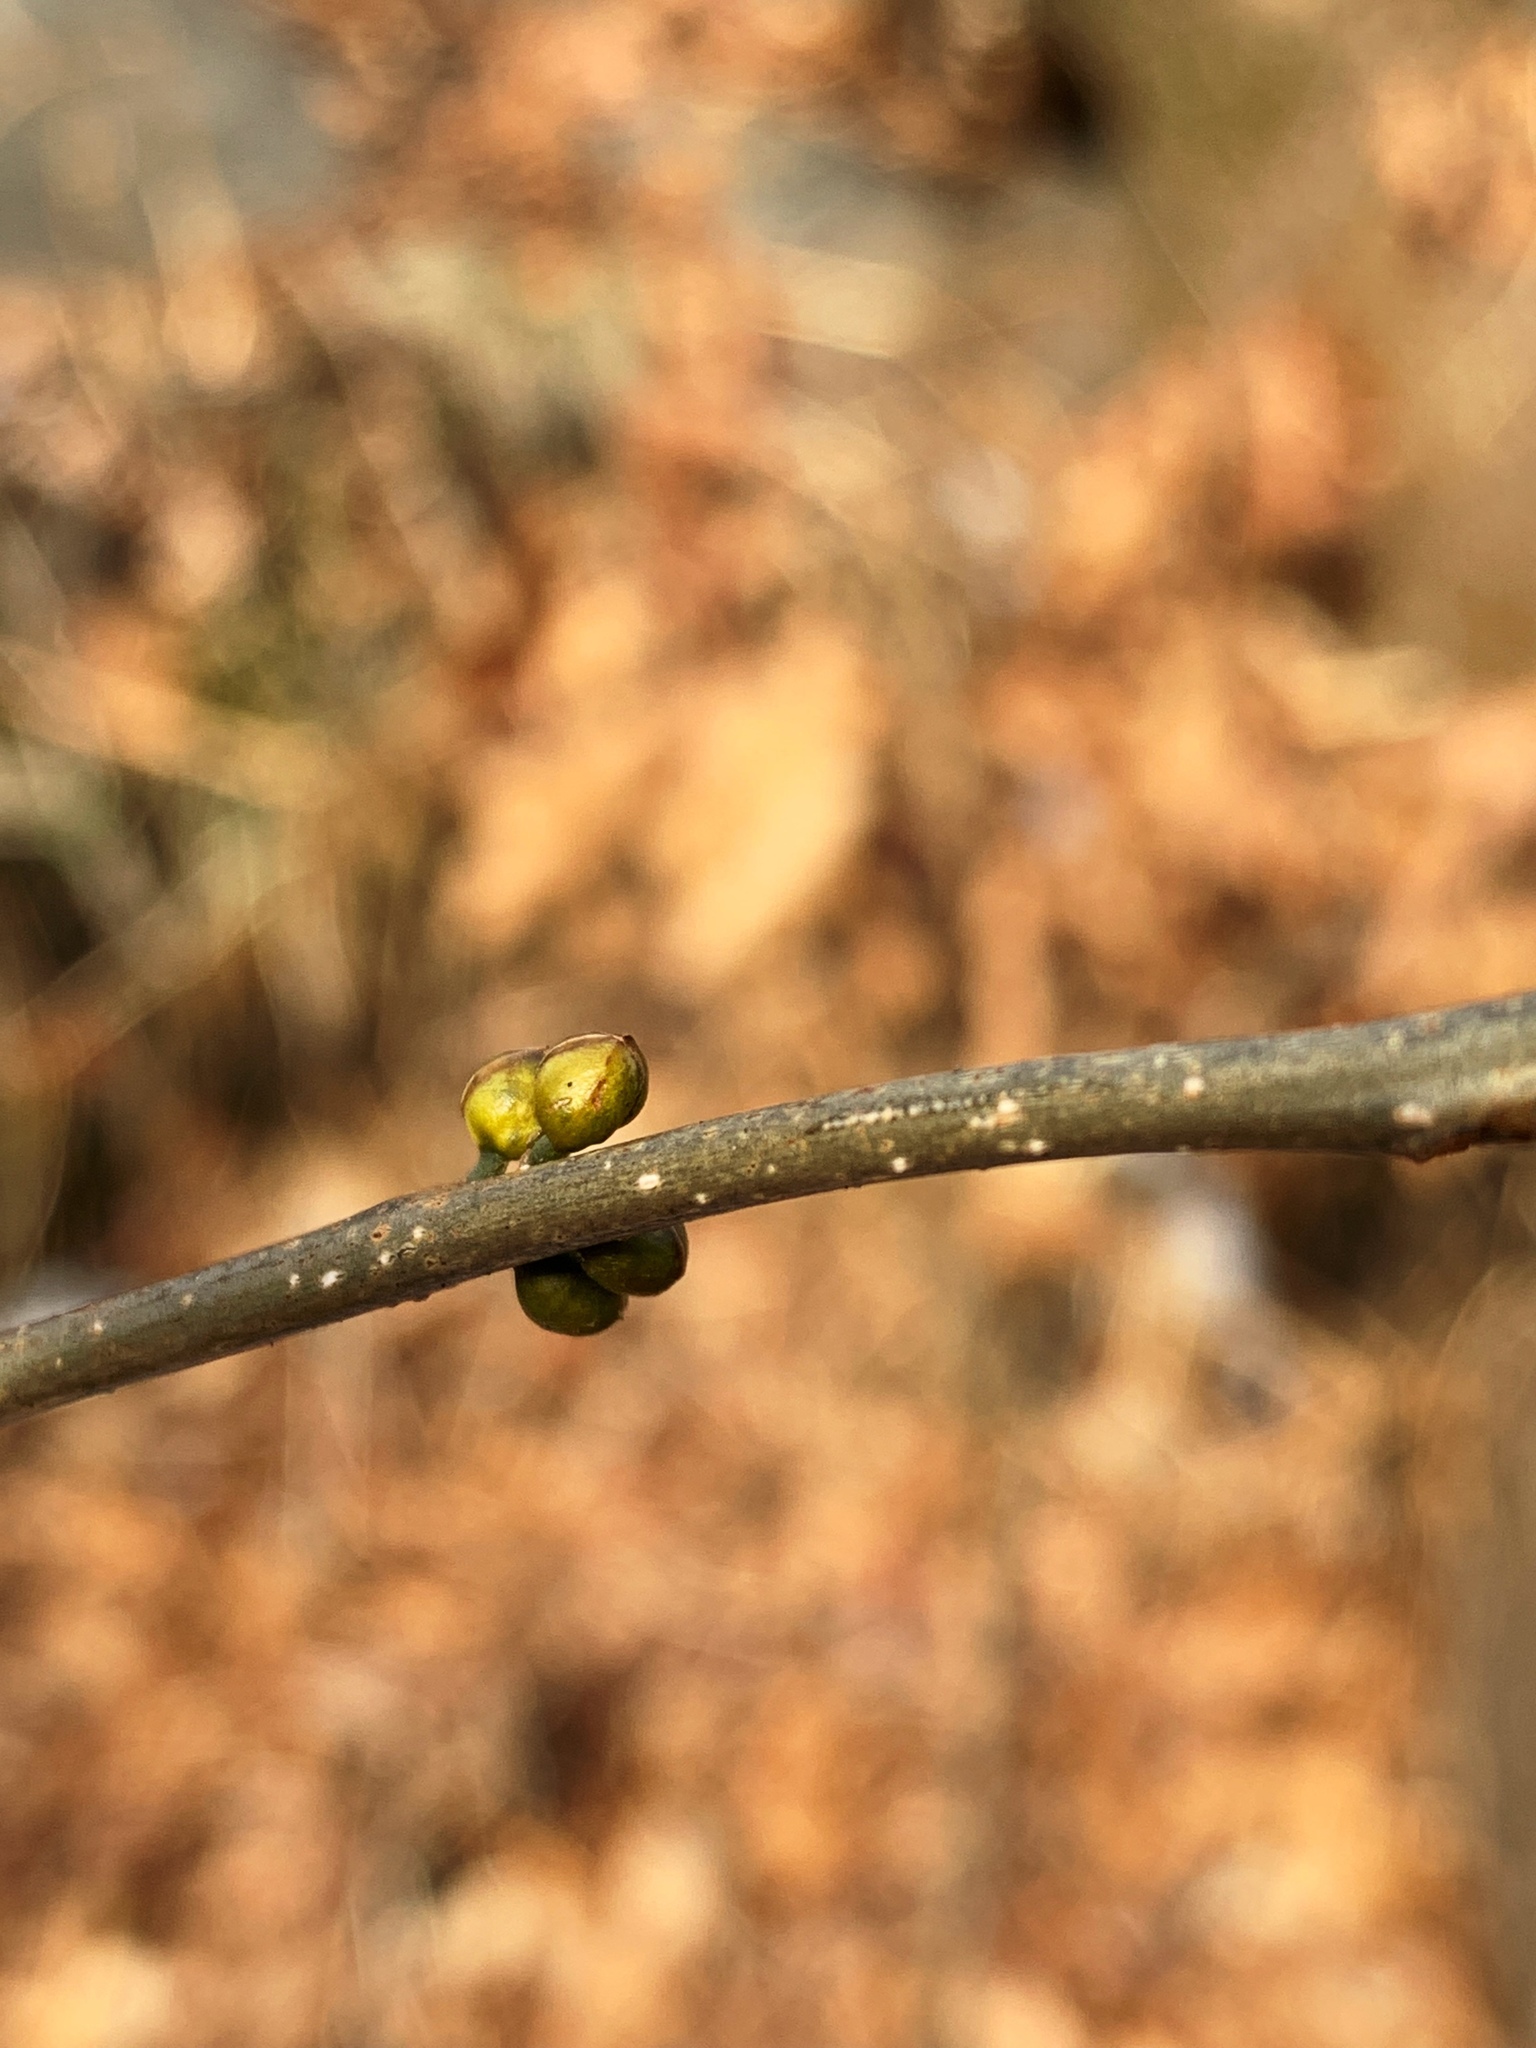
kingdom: Plantae
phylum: Tracheophyta
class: Magnoliopsida
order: Laurales
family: Lauraceae
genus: Lindera
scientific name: Lindera benzoin
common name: Spicebush
